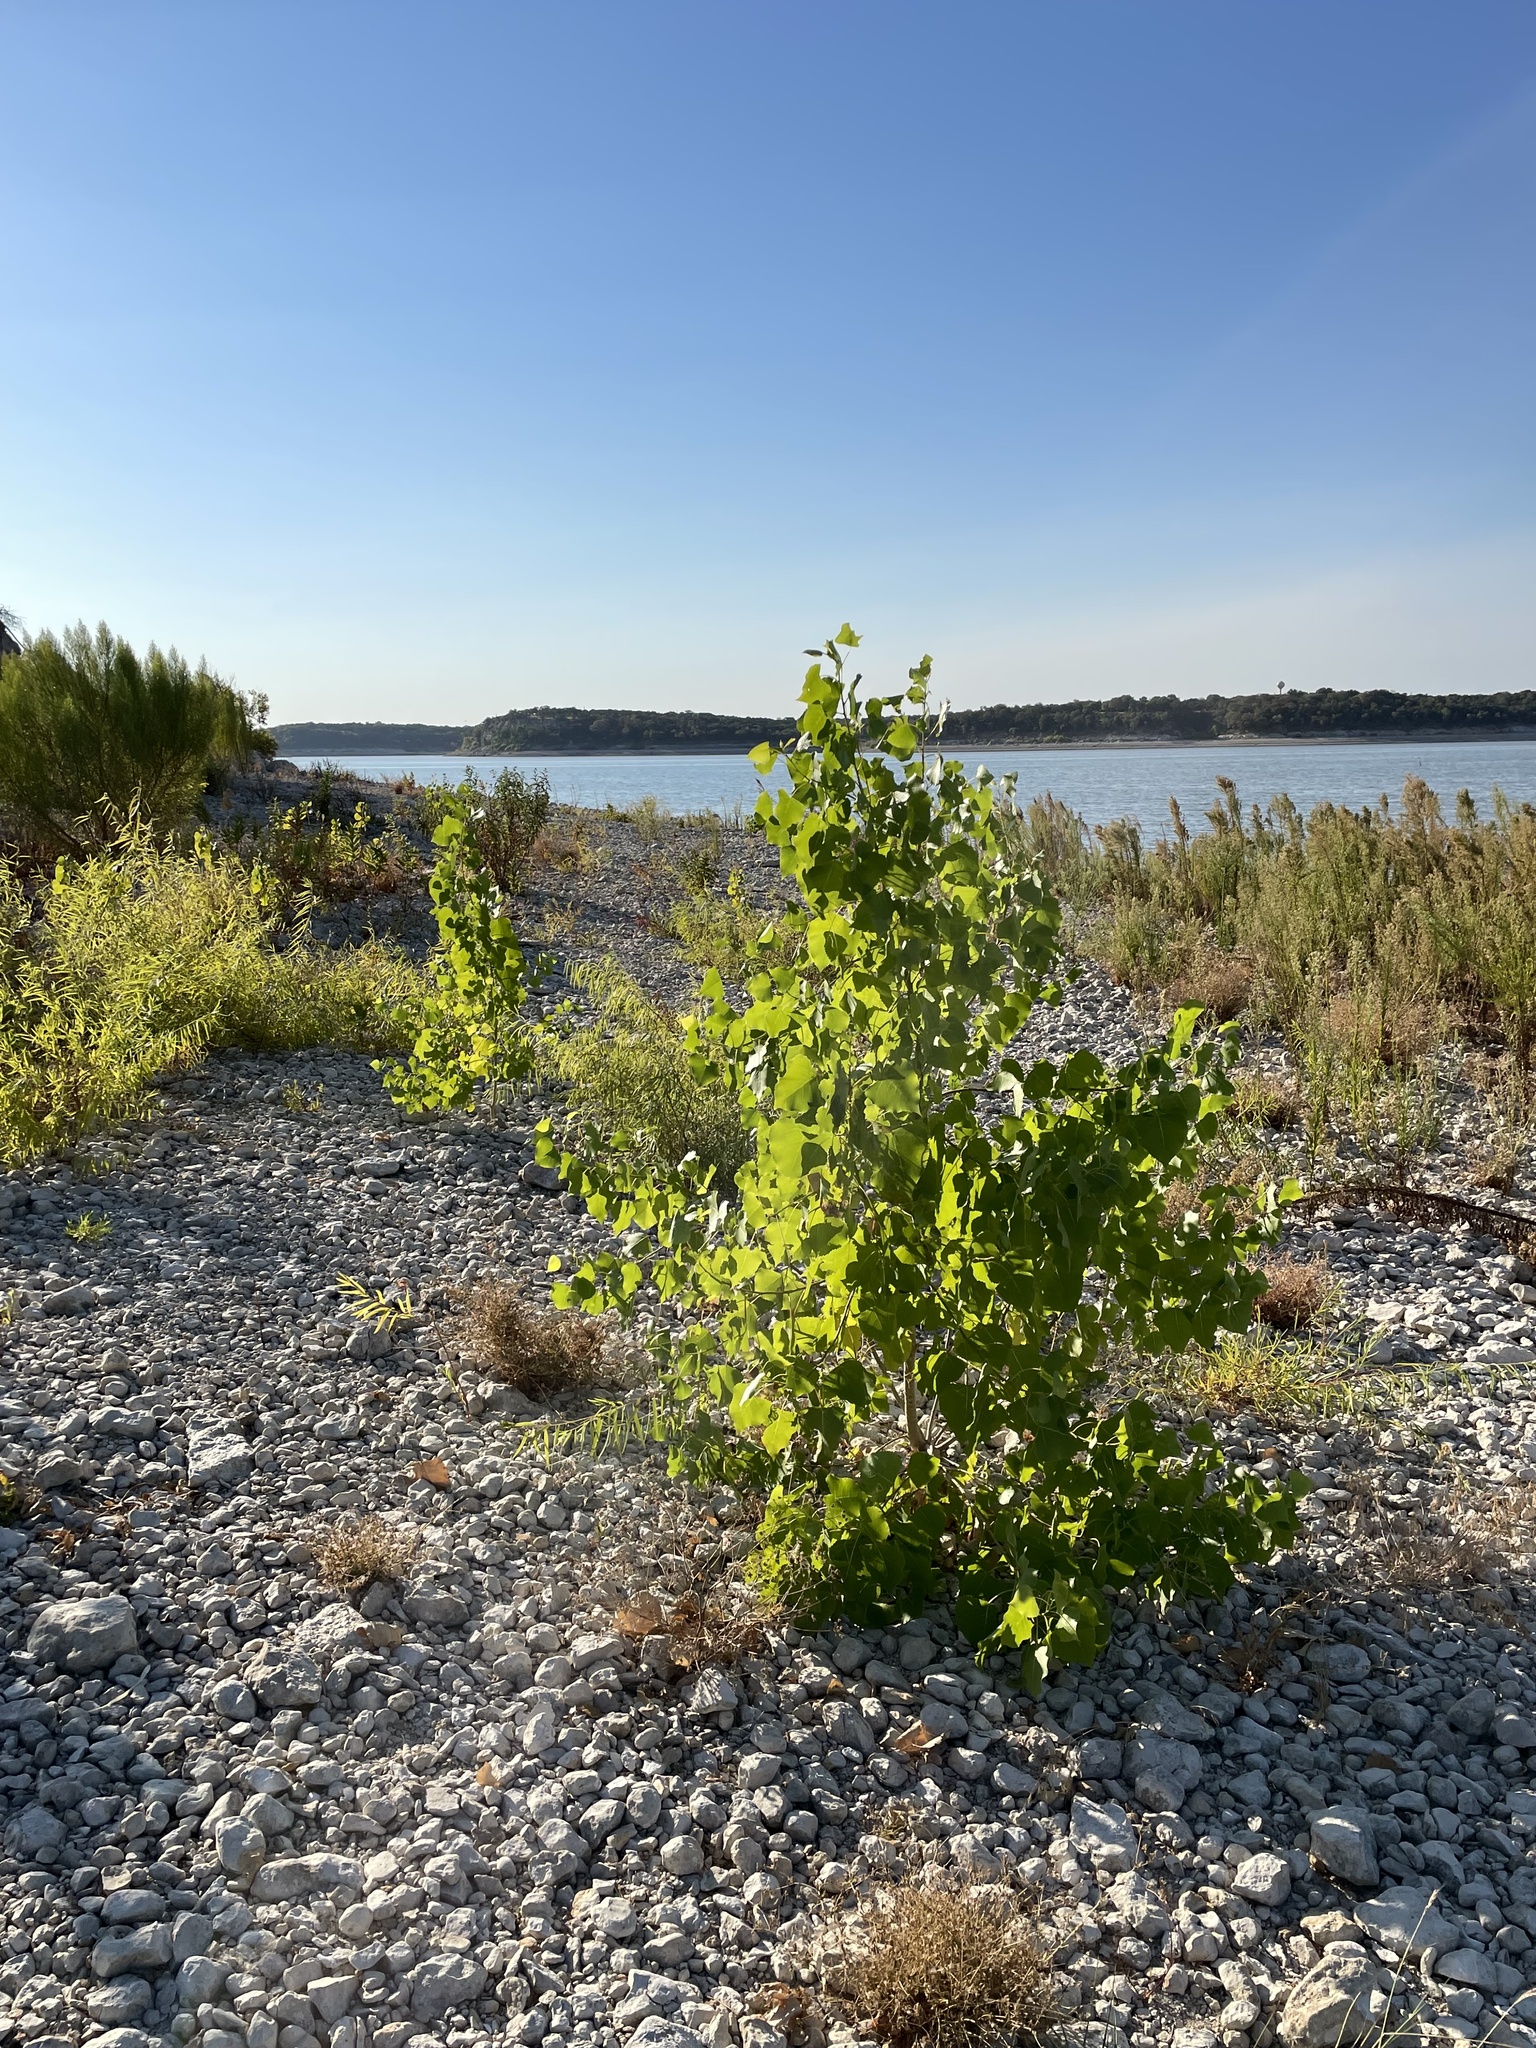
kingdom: Plantae
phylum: Tracheophyta
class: Magnoliopsida
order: Malpighiales
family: Salicaceae
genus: Populus
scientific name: Populus deltoides
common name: Eastern cottonwood
